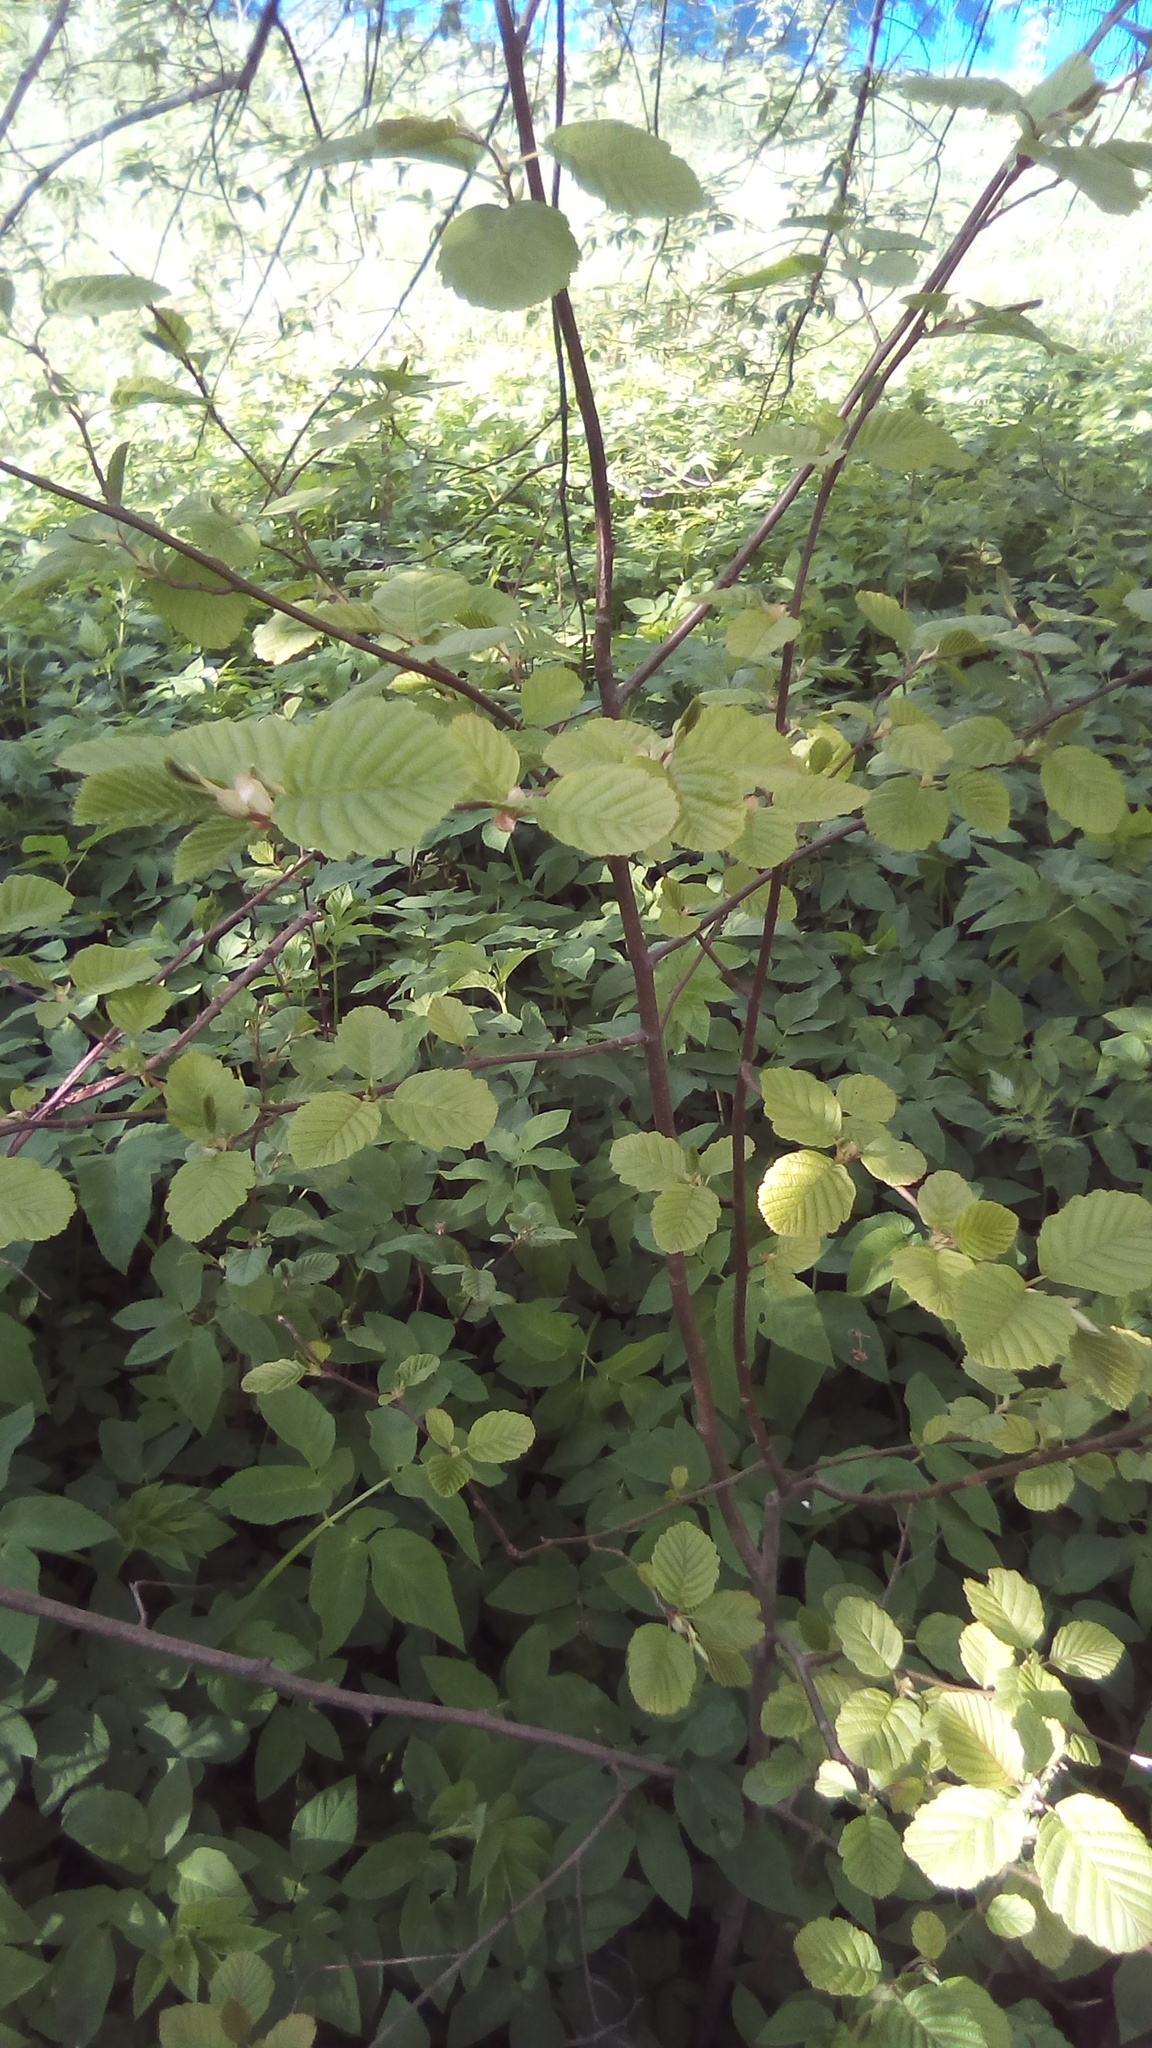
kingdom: Plantae
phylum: Tracheophyta
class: Magnoliopsida
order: Fagales
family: Betulaceae
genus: Alnus
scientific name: Alnus incana
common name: Grey alder
